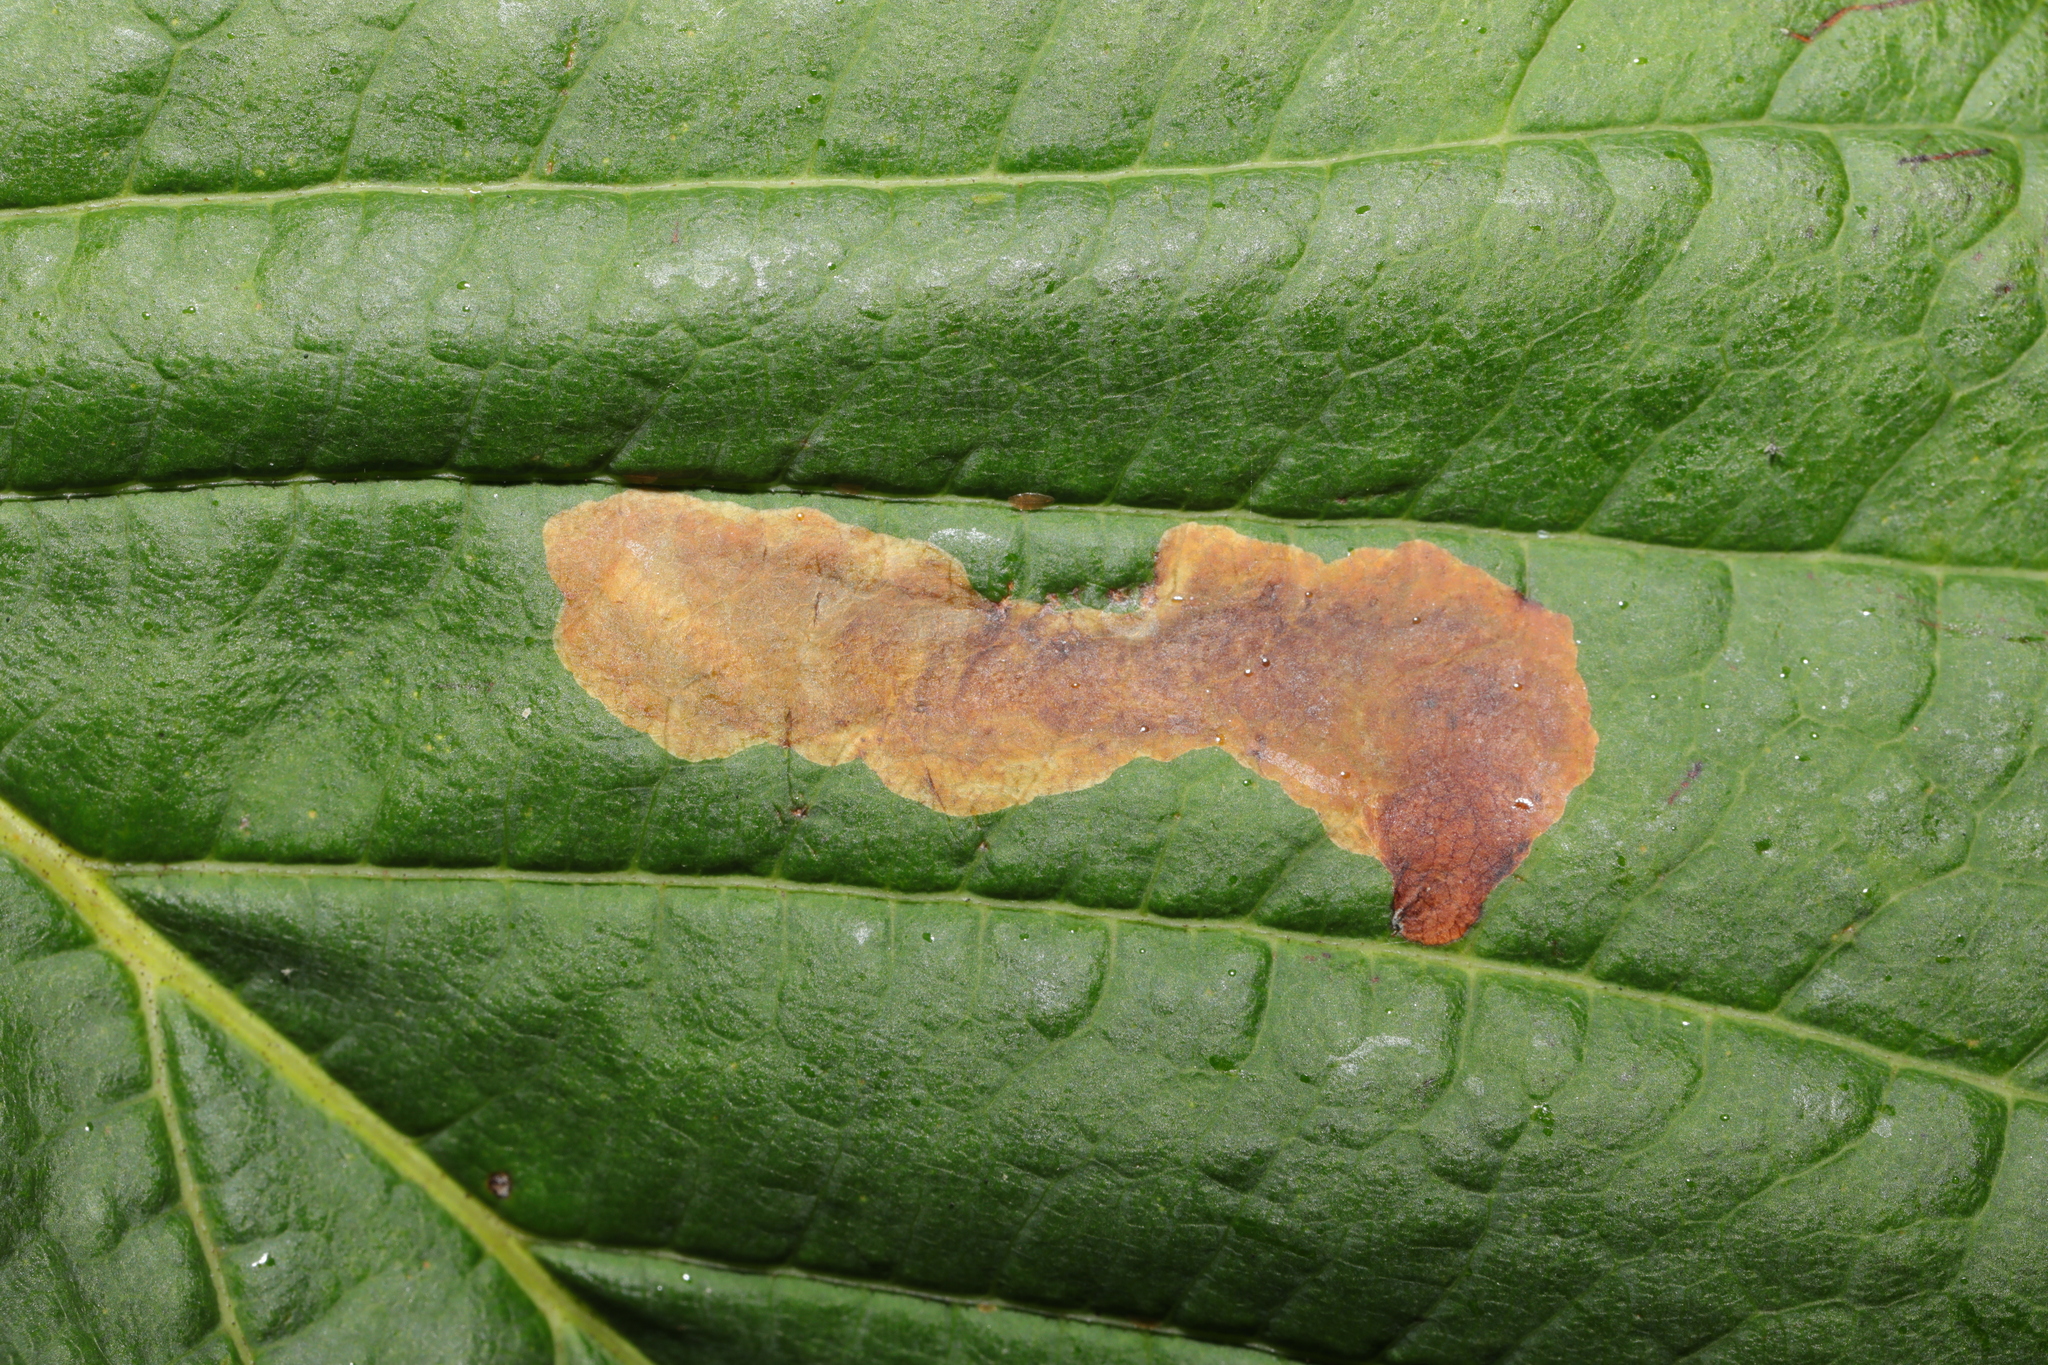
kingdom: Animalia
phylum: Arthropoda
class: Insecta
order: Lepidoptera
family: Gracillariidae
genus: Cameraria
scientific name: Cameraria ohridella
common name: Horse-chestnut leaf-miner
